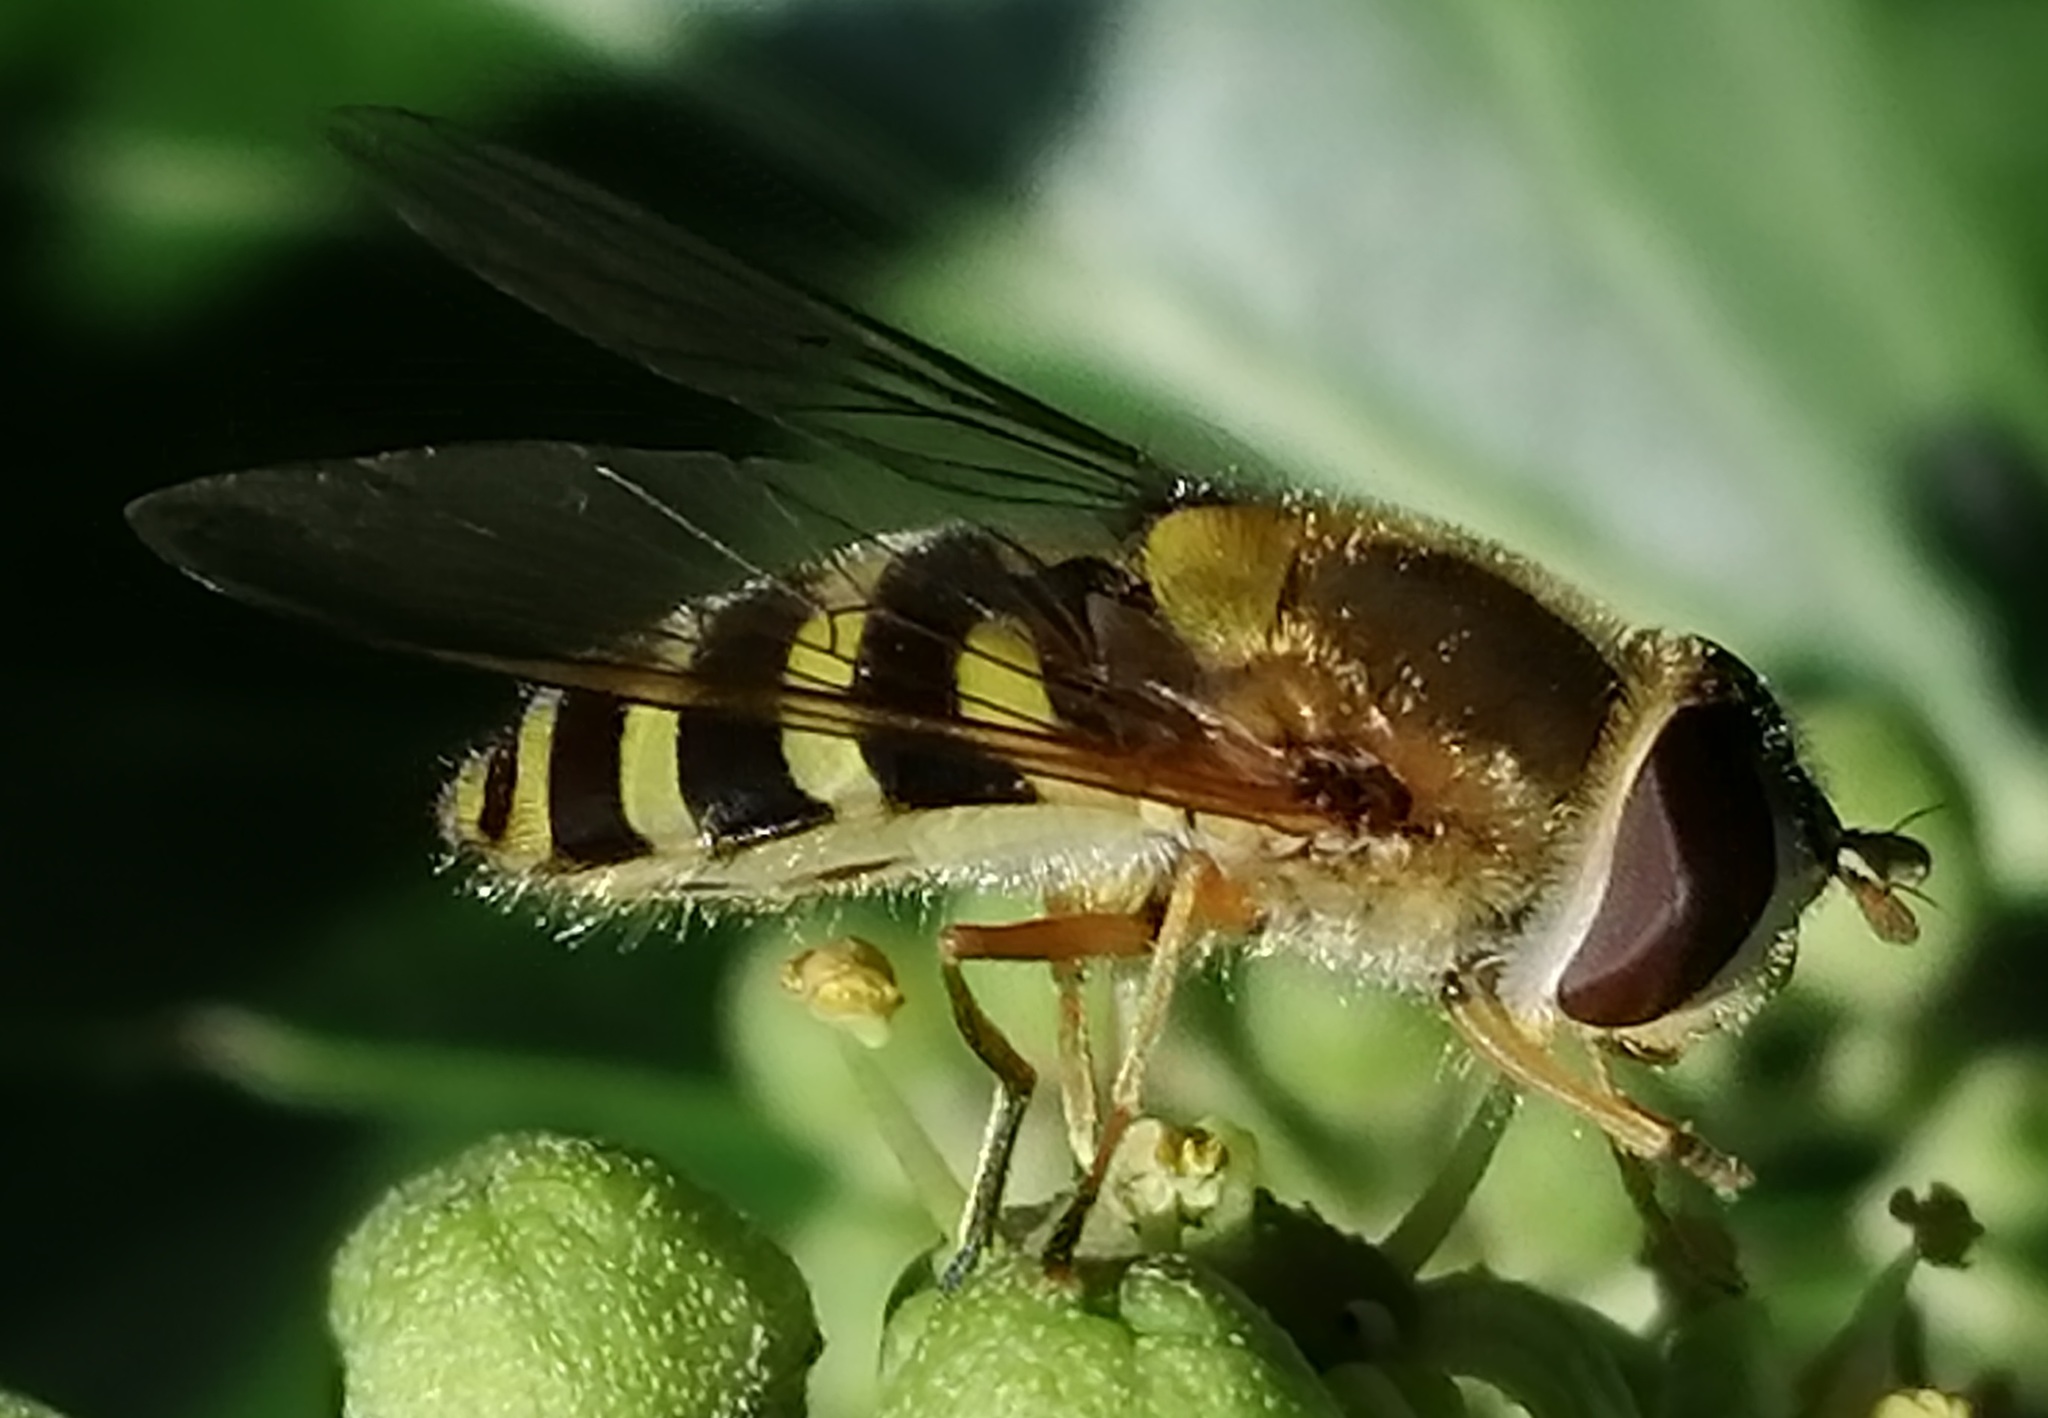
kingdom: Animalia
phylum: Arthropoda
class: Insecta
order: Diptera
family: Syrphidae
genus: Syrphus
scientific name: Syrphus ribesii
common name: Common flower fly
